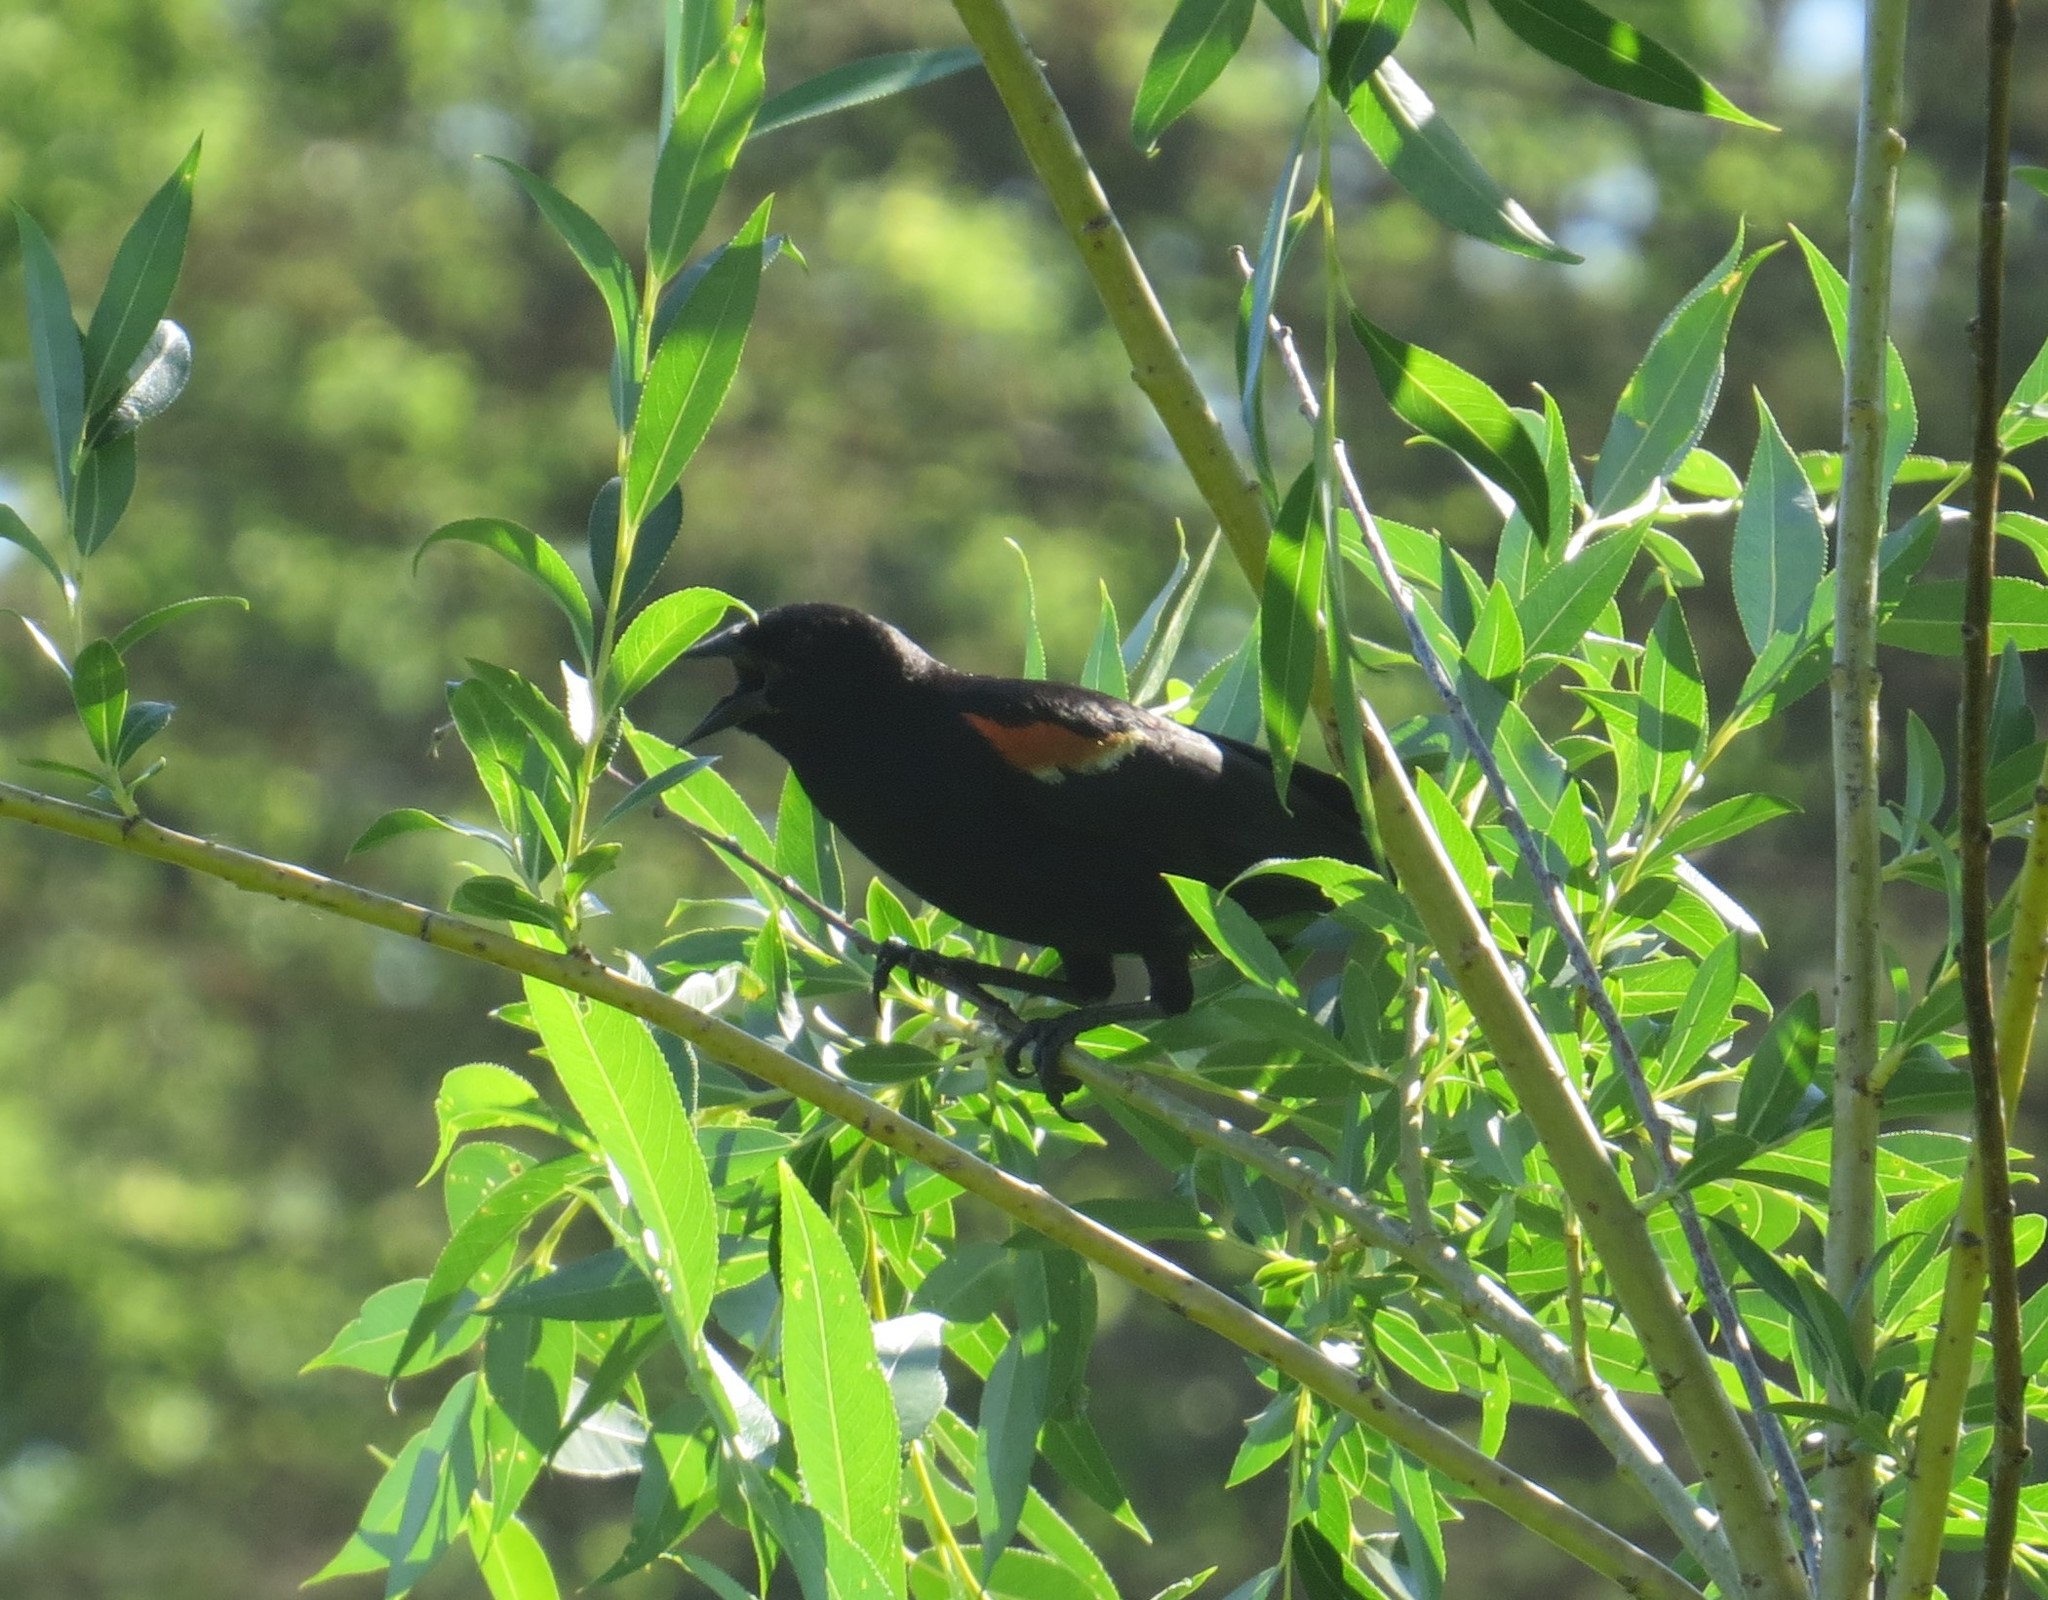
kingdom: Animalia
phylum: Chordata
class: Aves
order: Passeriformes
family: Icteridae
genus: Agelaius
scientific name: Agelaius phoeniceus
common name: Red-winged blackbird
